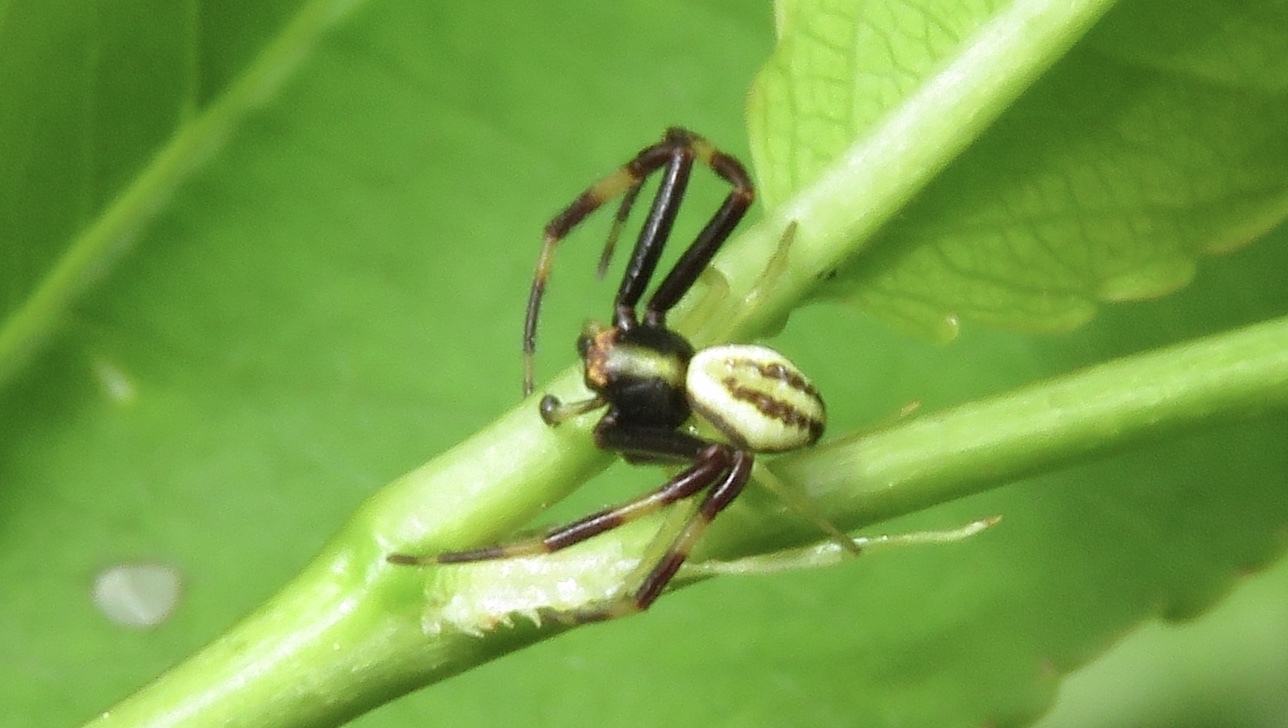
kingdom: Animalia
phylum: Arthropoda
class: Arachnida
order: Araneae
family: Thomisidae
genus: Misumena
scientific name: Misumena vatia
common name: Goldenrod crab spider
